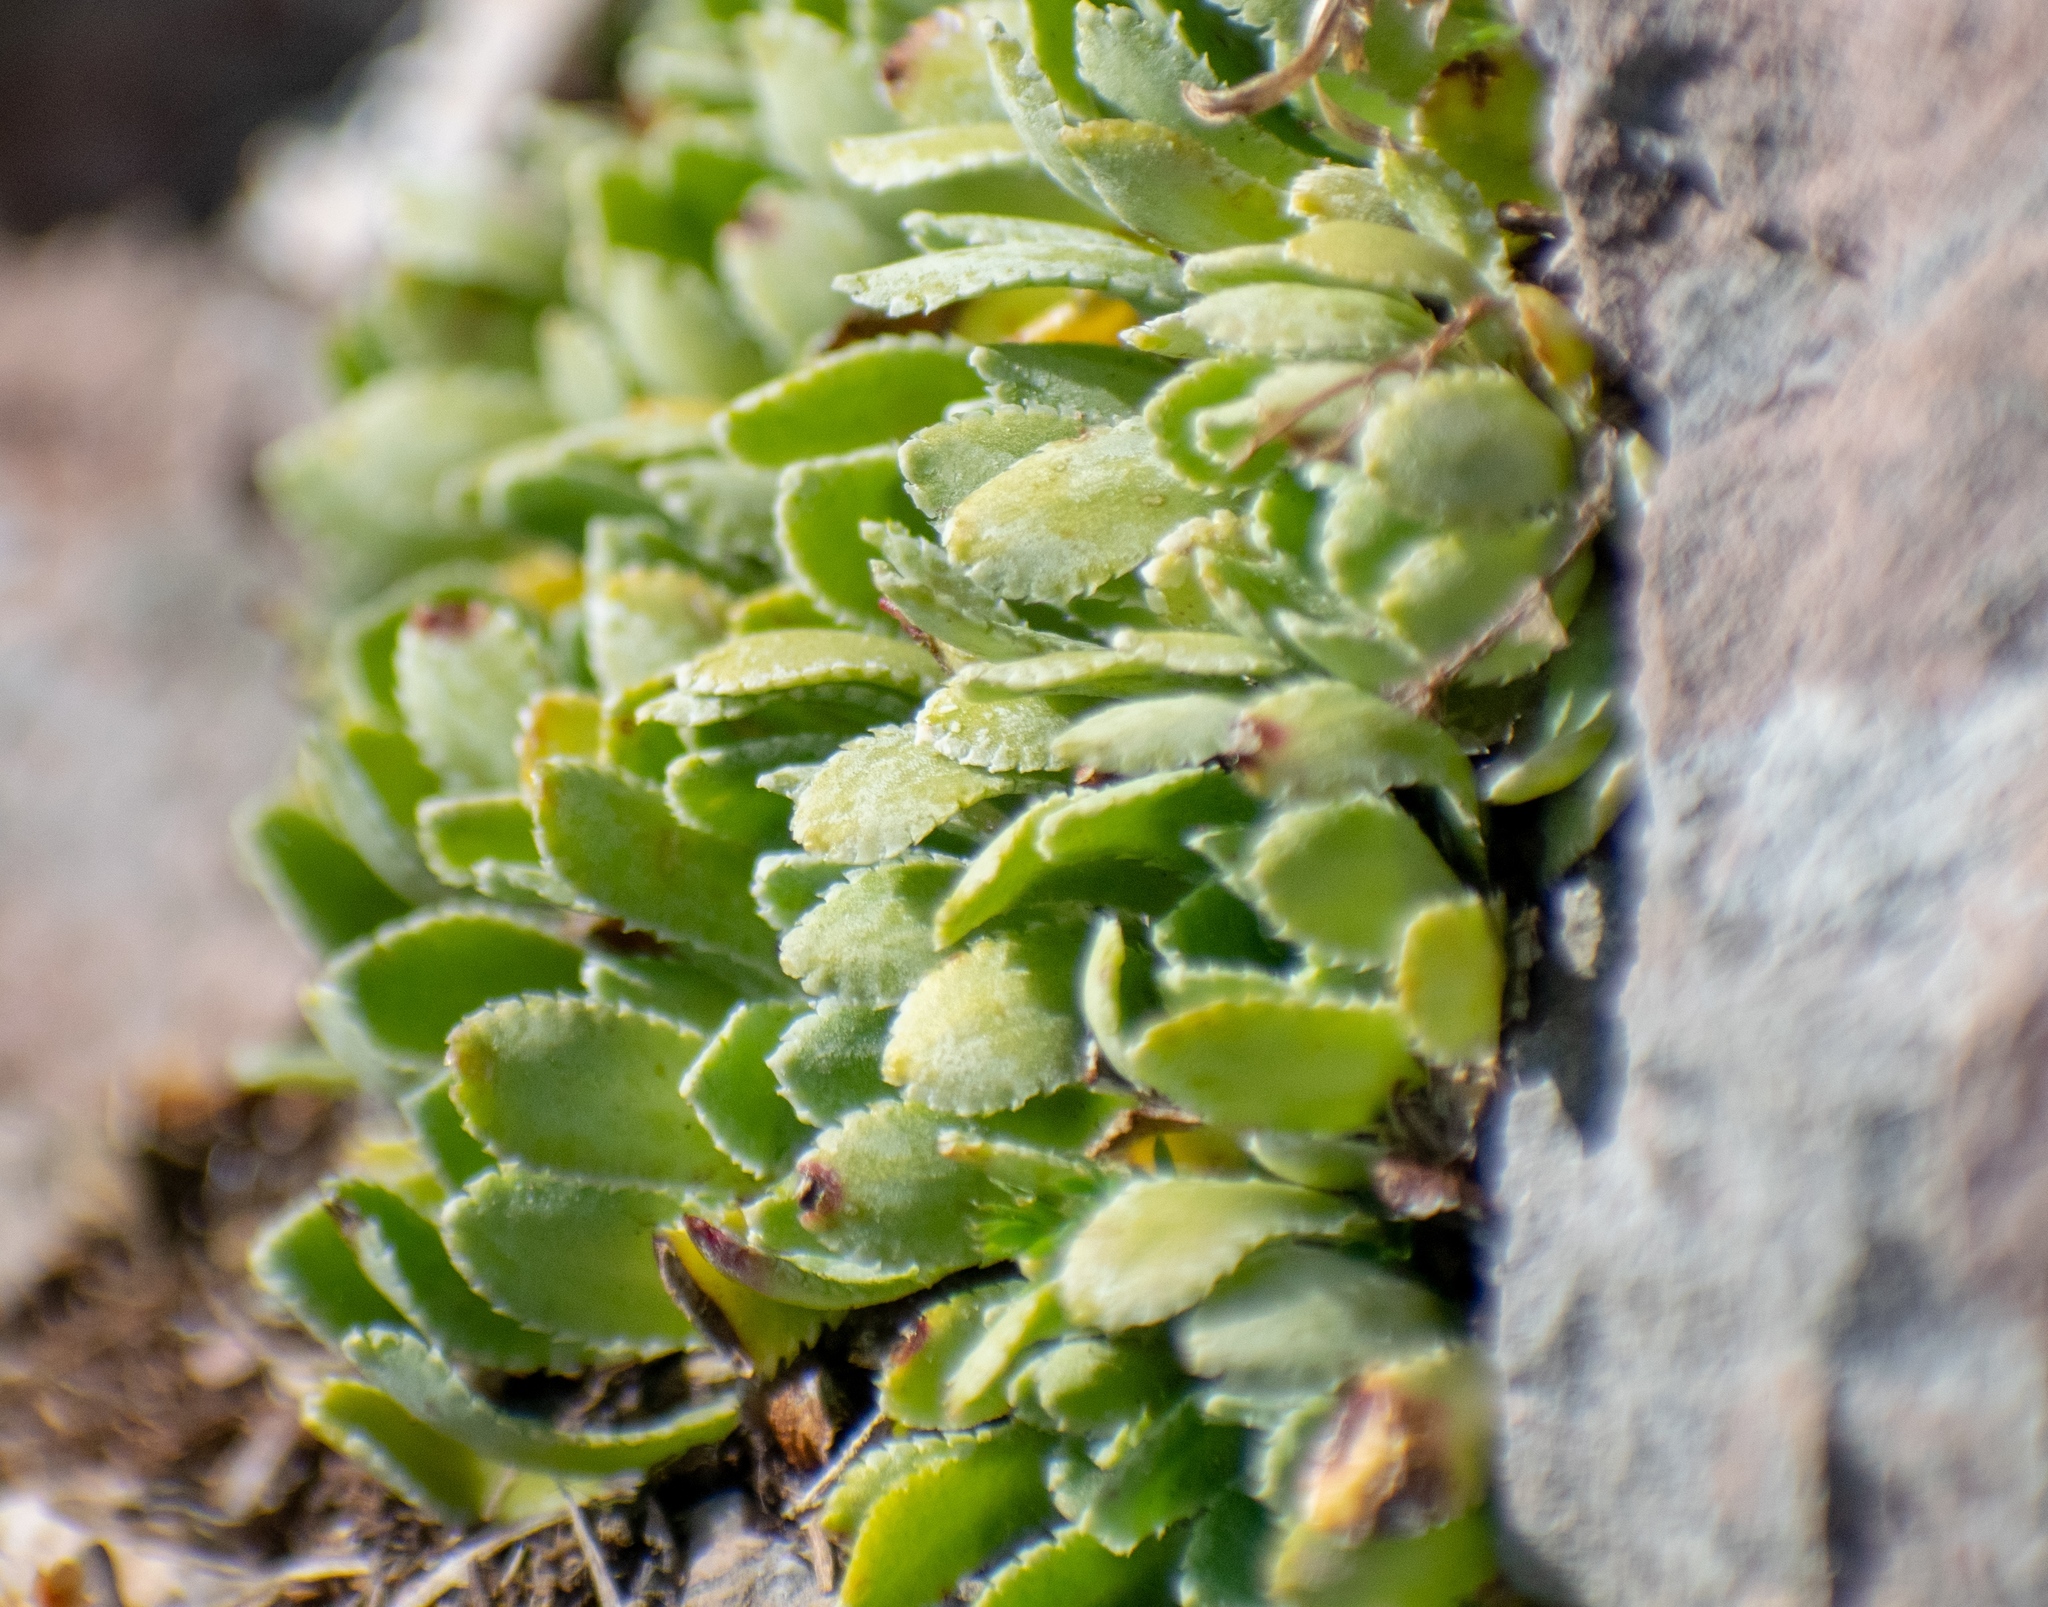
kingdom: Plantae
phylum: Tracheophyta
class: Magnoliopsida
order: Saxifragales
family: Saxifragaceae
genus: Saxifraga
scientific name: Saxifraga paniculata
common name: Livelong saxifrage
